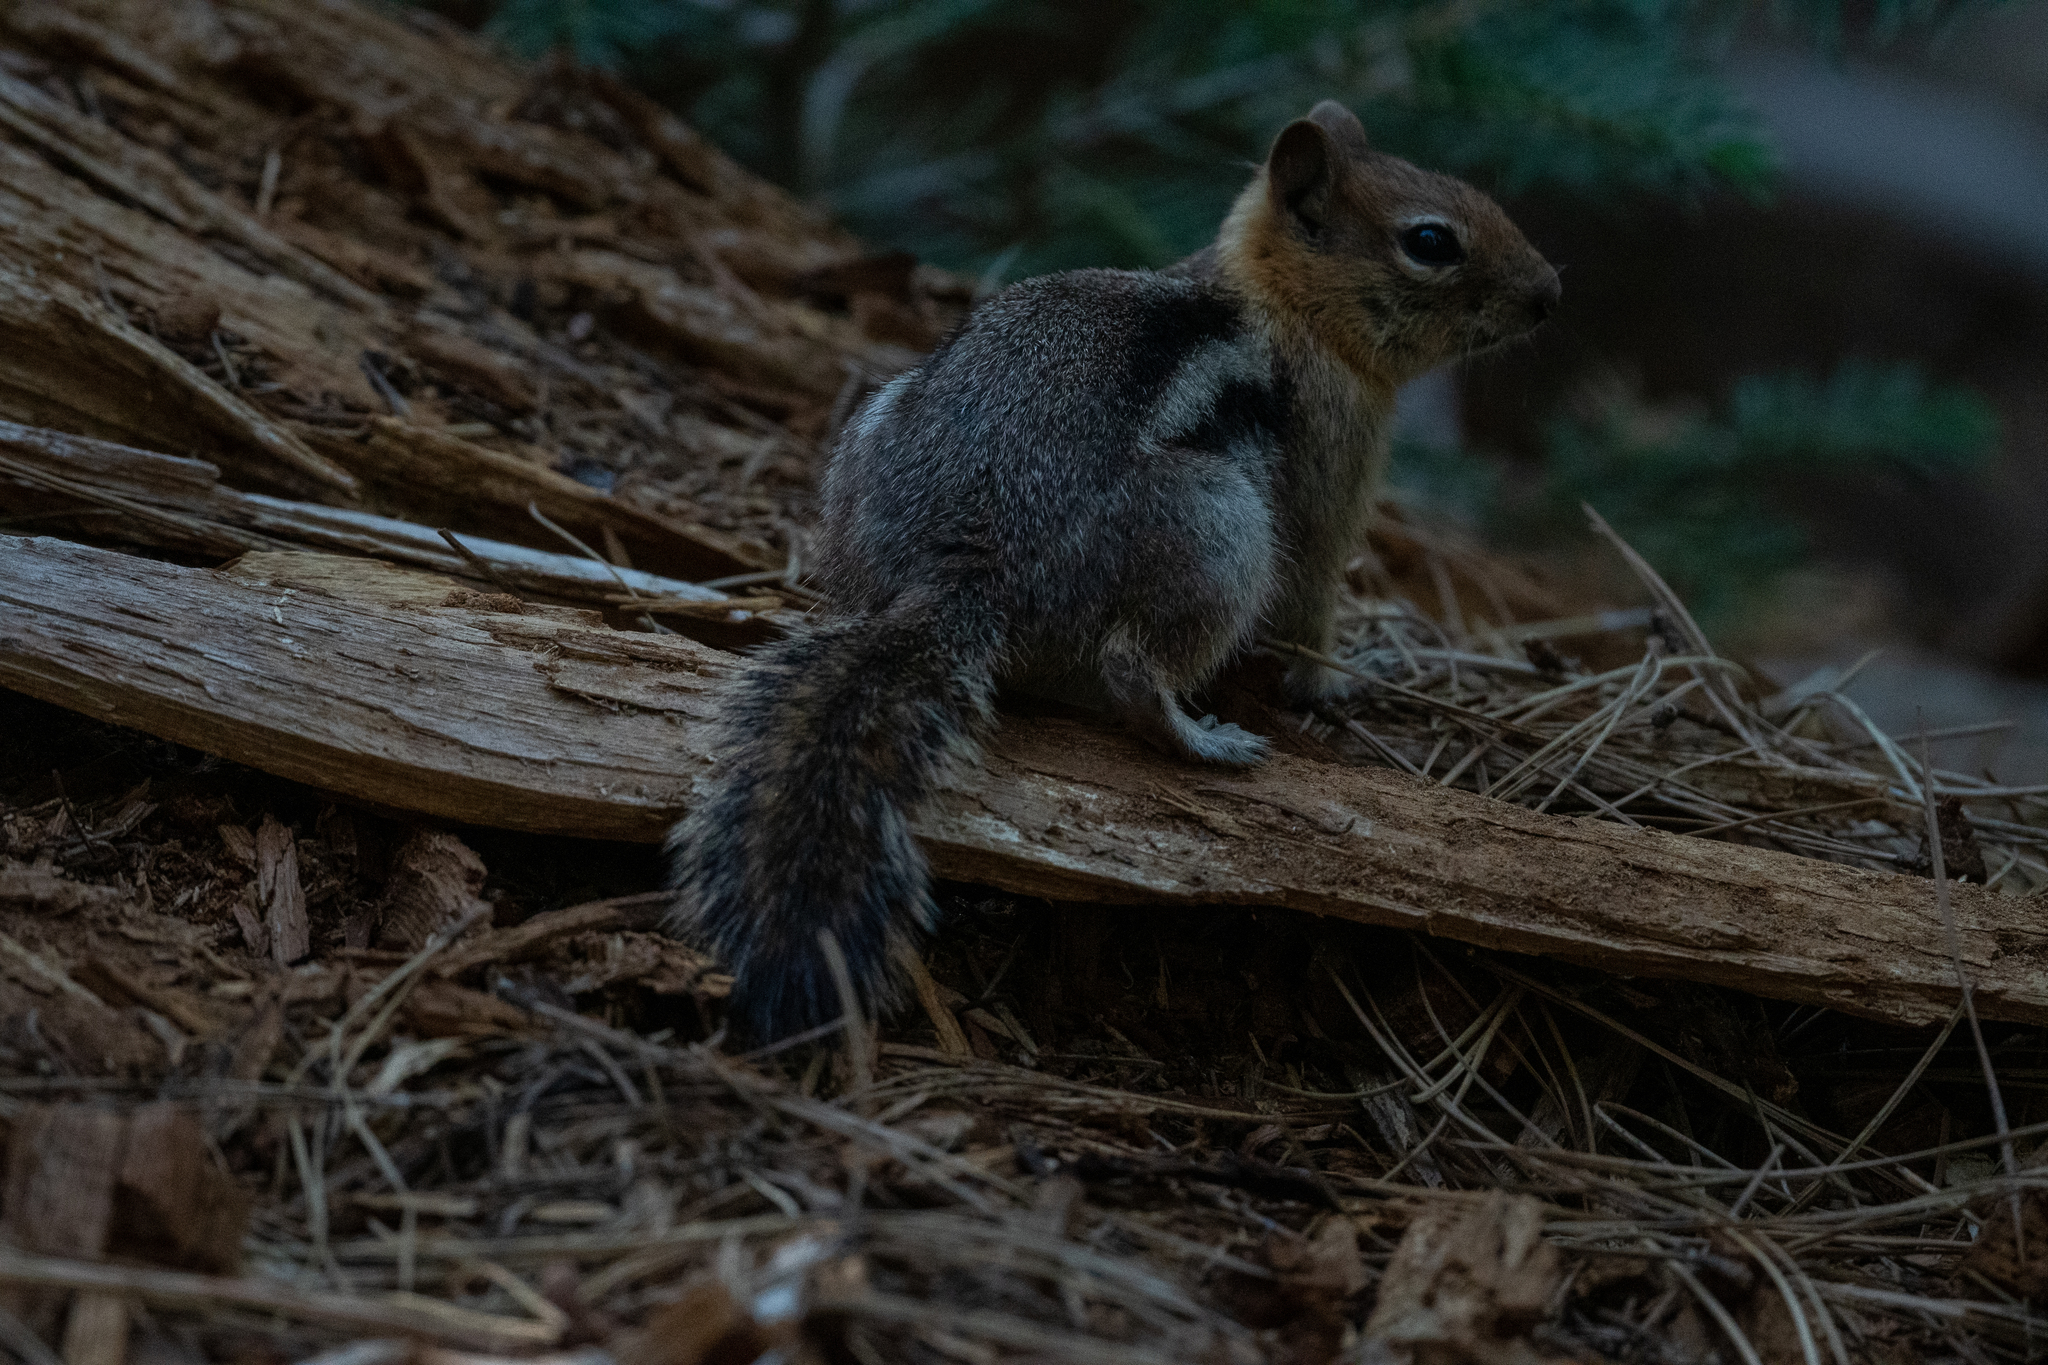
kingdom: Animalia
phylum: Chordata
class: Mammalia
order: Rodentia
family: Sciuridae
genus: Callospermophilus
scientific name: Callospermophilus lateralis
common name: Golden-mantled ground squirrel
